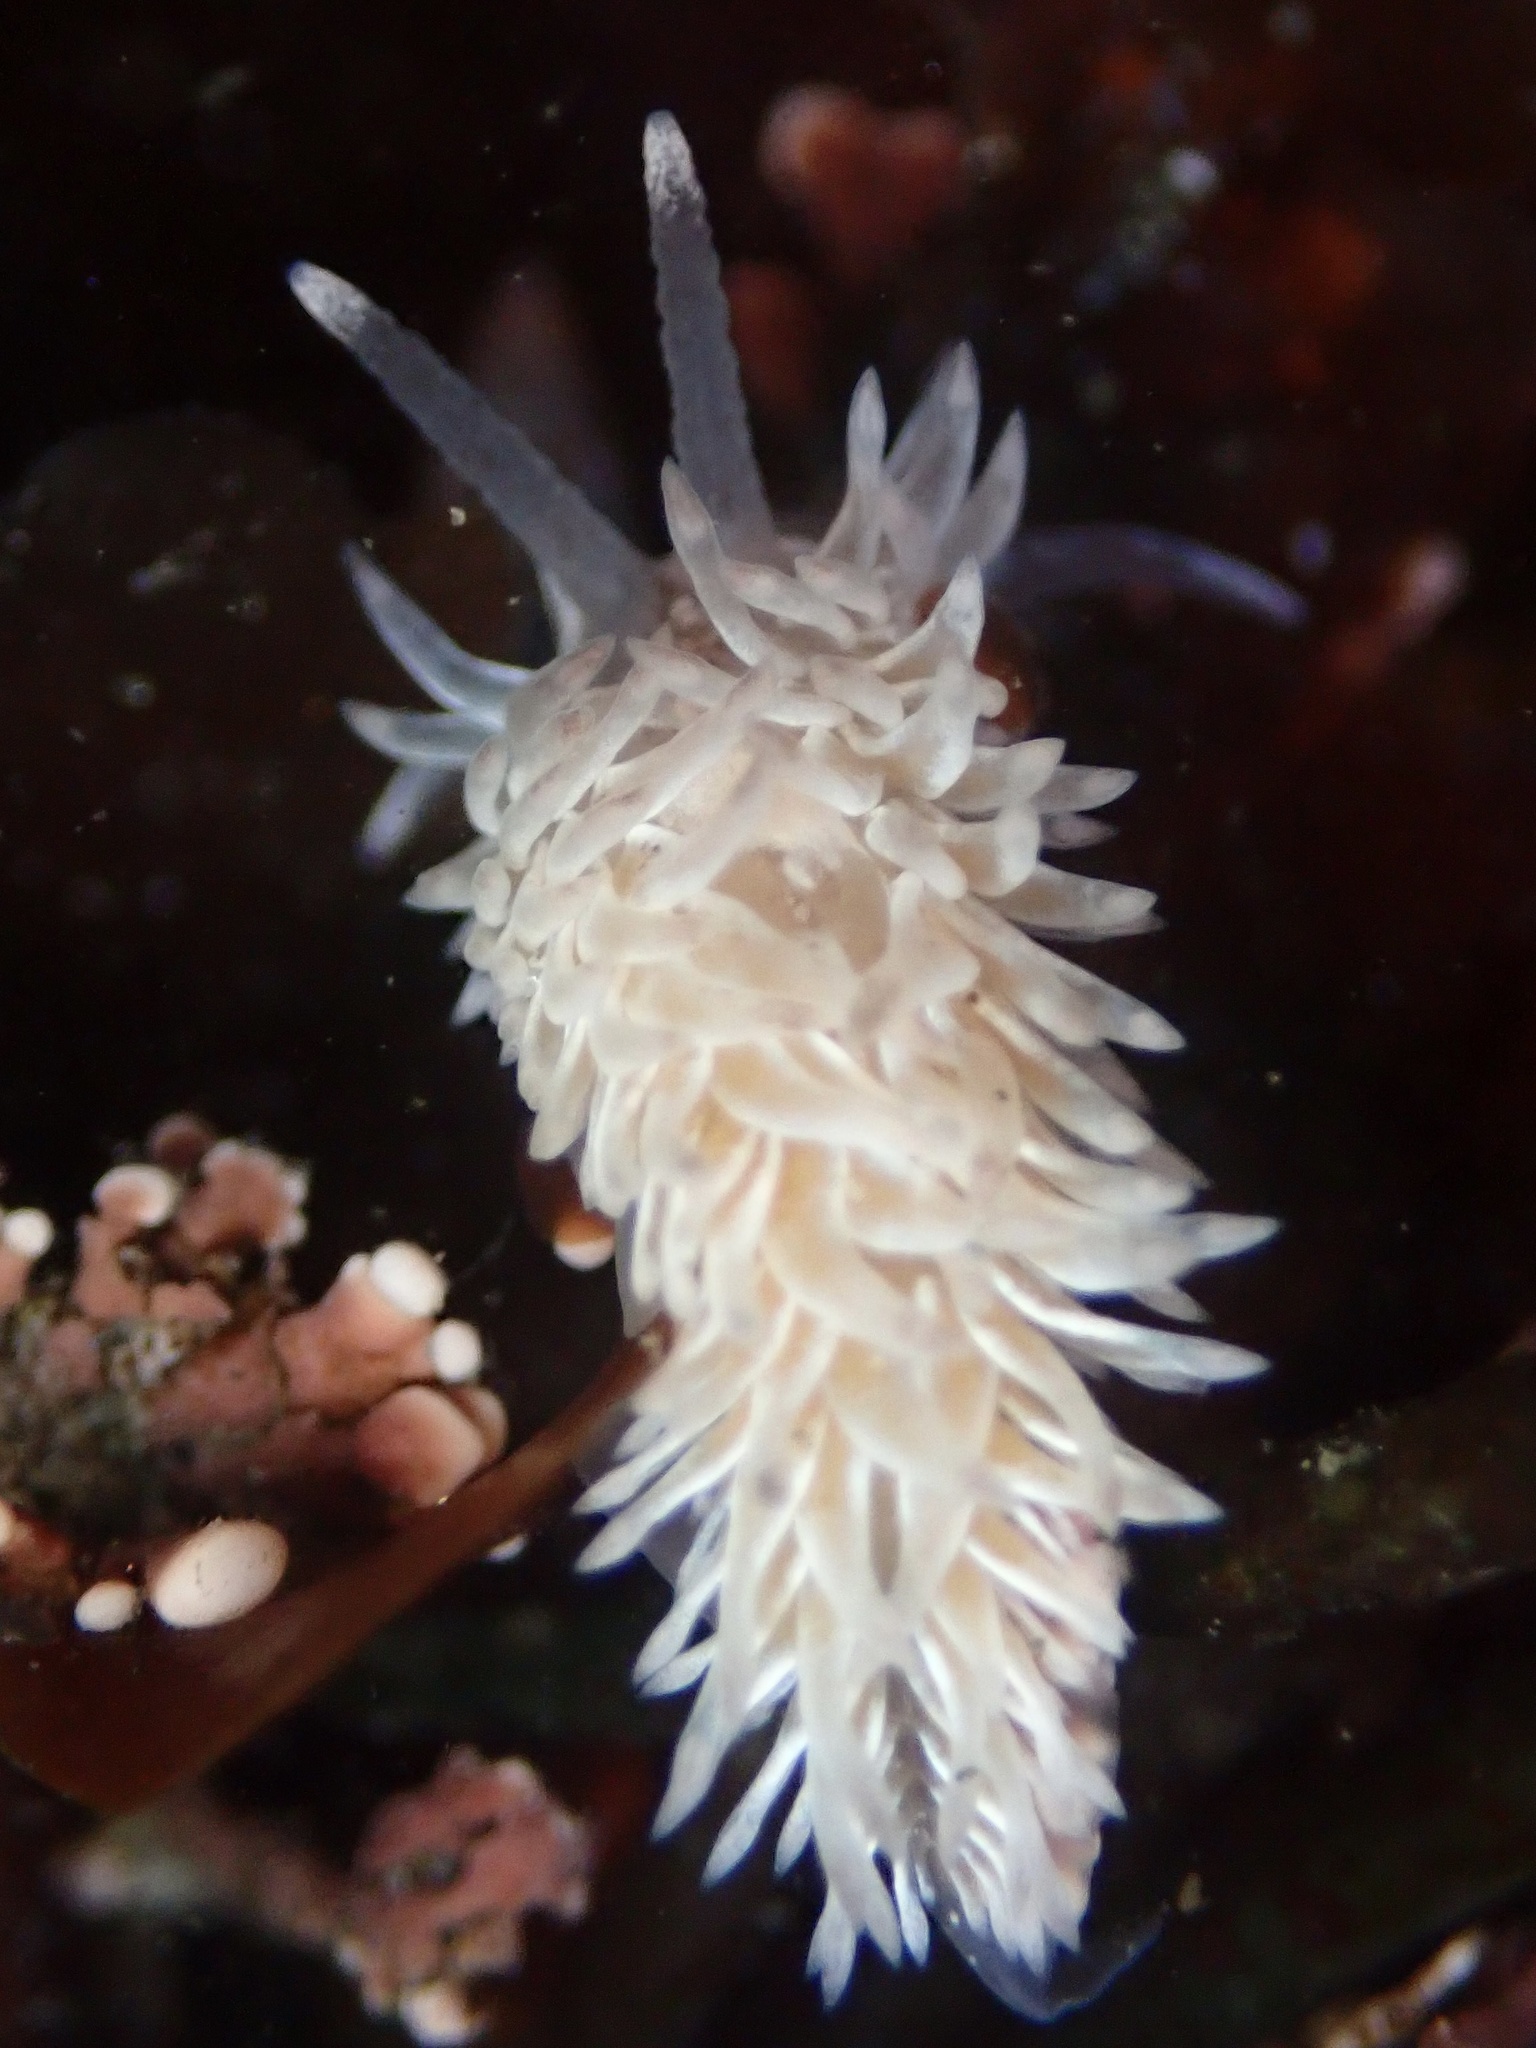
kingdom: Animalia
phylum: Mollusca
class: Gastropoda
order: Nudibranchia
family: Aeolidiidae
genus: Aeolidia
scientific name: Aeolidia loui
